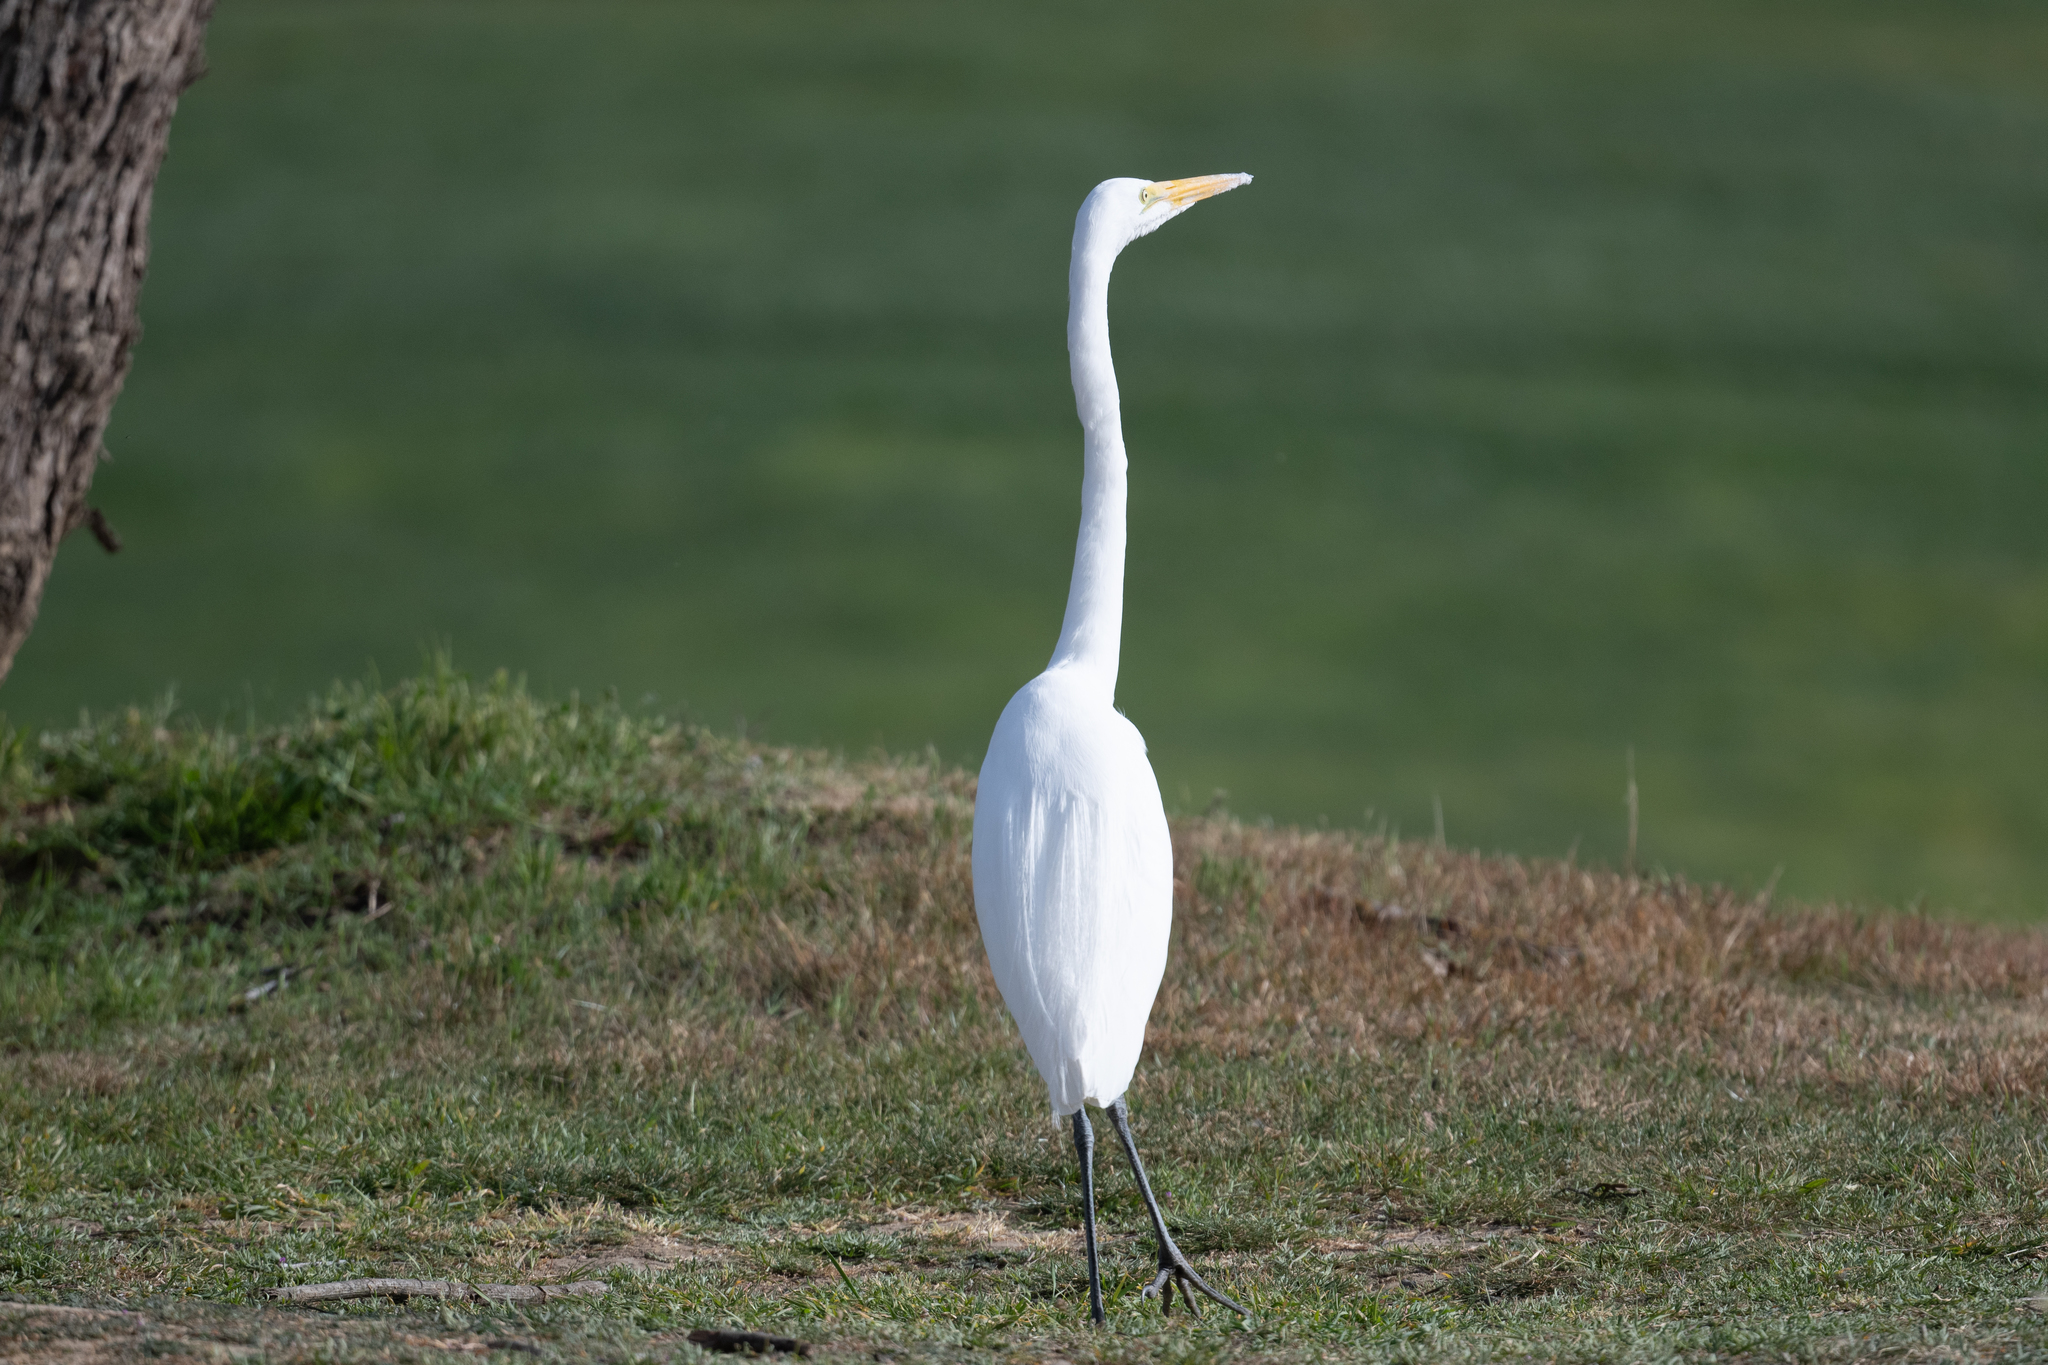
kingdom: Animalia
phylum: Chordata
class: Aves
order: Pelecaniformes
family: Ardeidae
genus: Ardea
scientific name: Ardea alba
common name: Great egret
